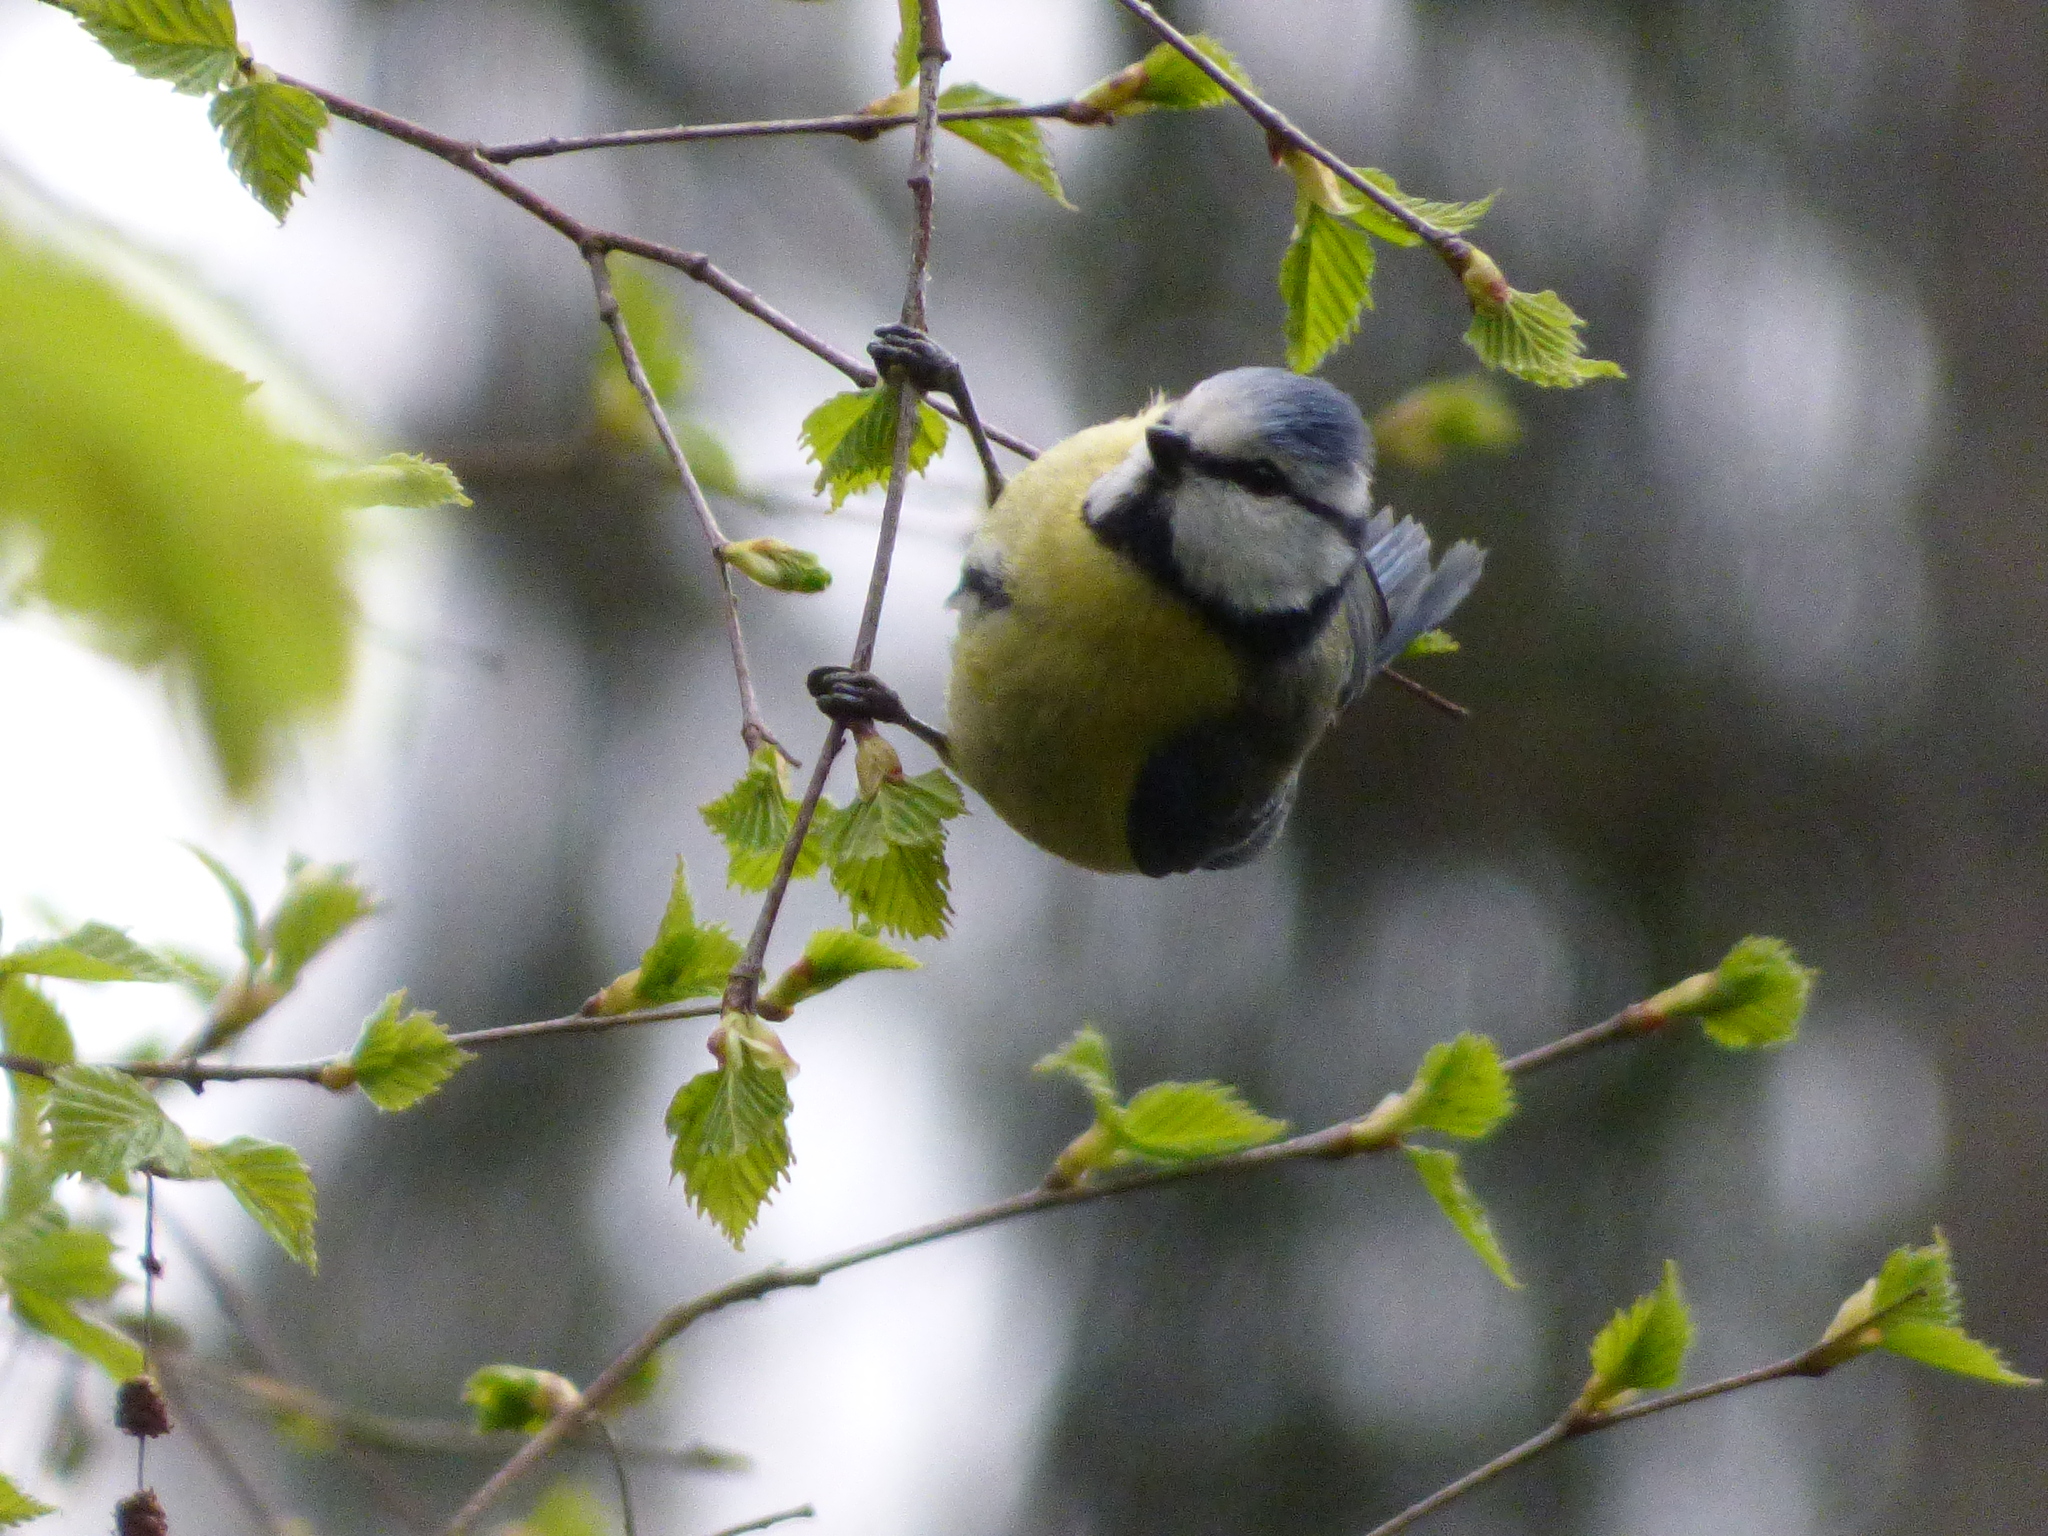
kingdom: Animalia
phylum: Chordata
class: Aves
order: Passeriformes
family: Paridae
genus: Cyanistes
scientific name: Cyanistes caeruleus
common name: Eurasian blue tit
